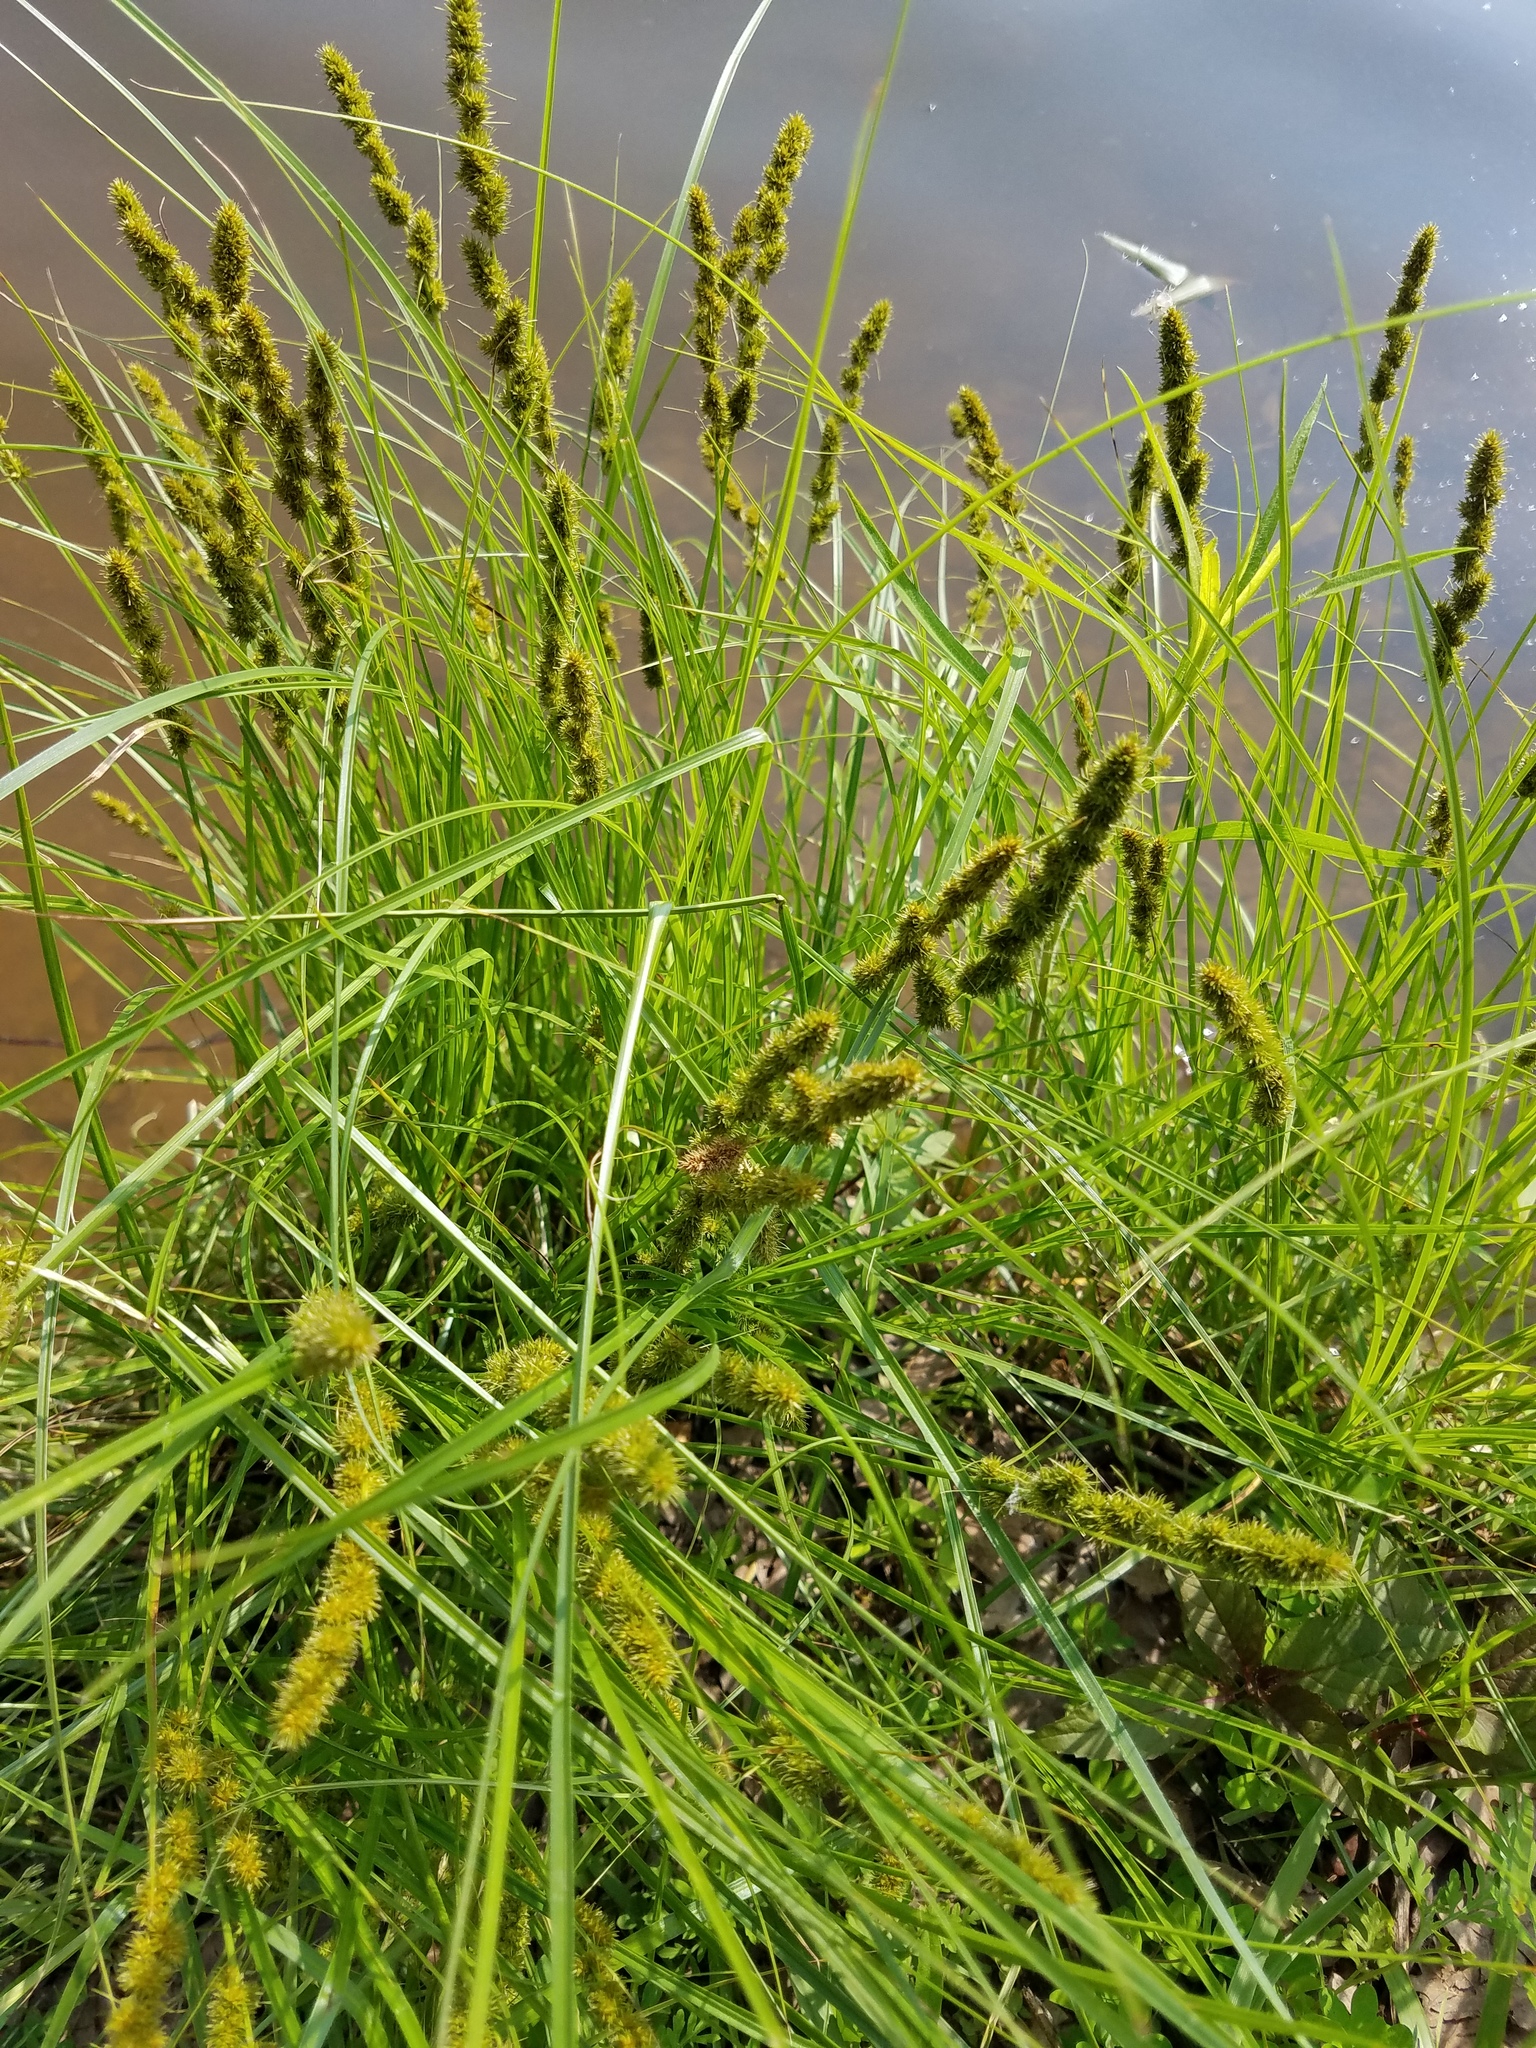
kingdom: Plantae
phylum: Tracheophyta
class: Liliopsida
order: Poales
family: Cyperaceae
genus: Carex
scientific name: Carex vulpinoidea
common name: American fox-sedge
